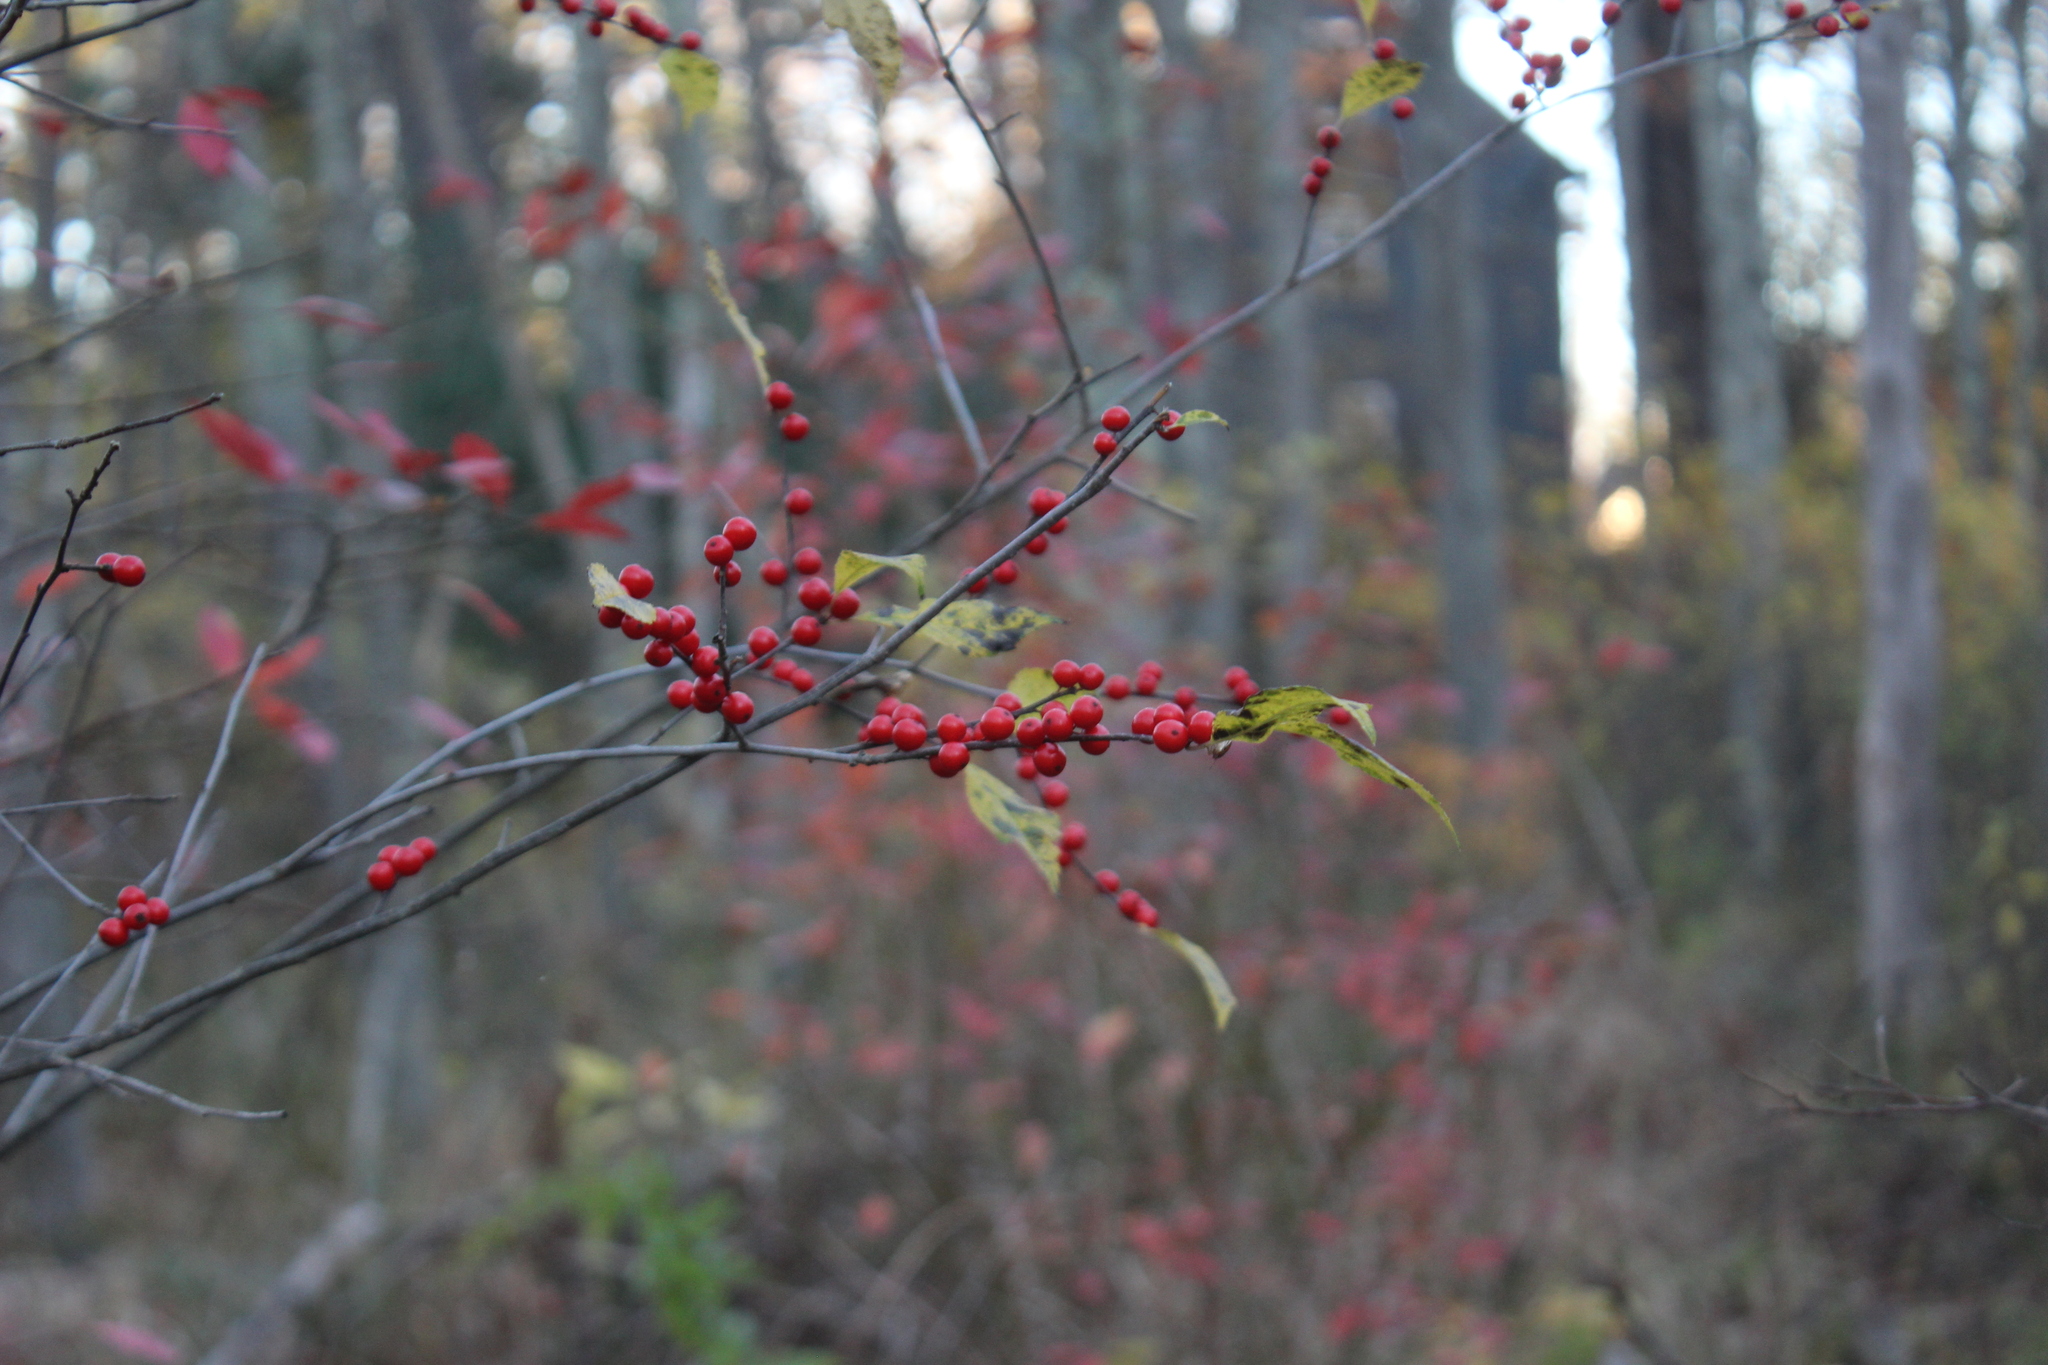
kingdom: Plantae
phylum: Tracheophyta
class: Magnoliopsida
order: Aquifoliales
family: Aquifoliaceae
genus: Ilex
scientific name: Ilex verticillata
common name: Virginia winterberry
